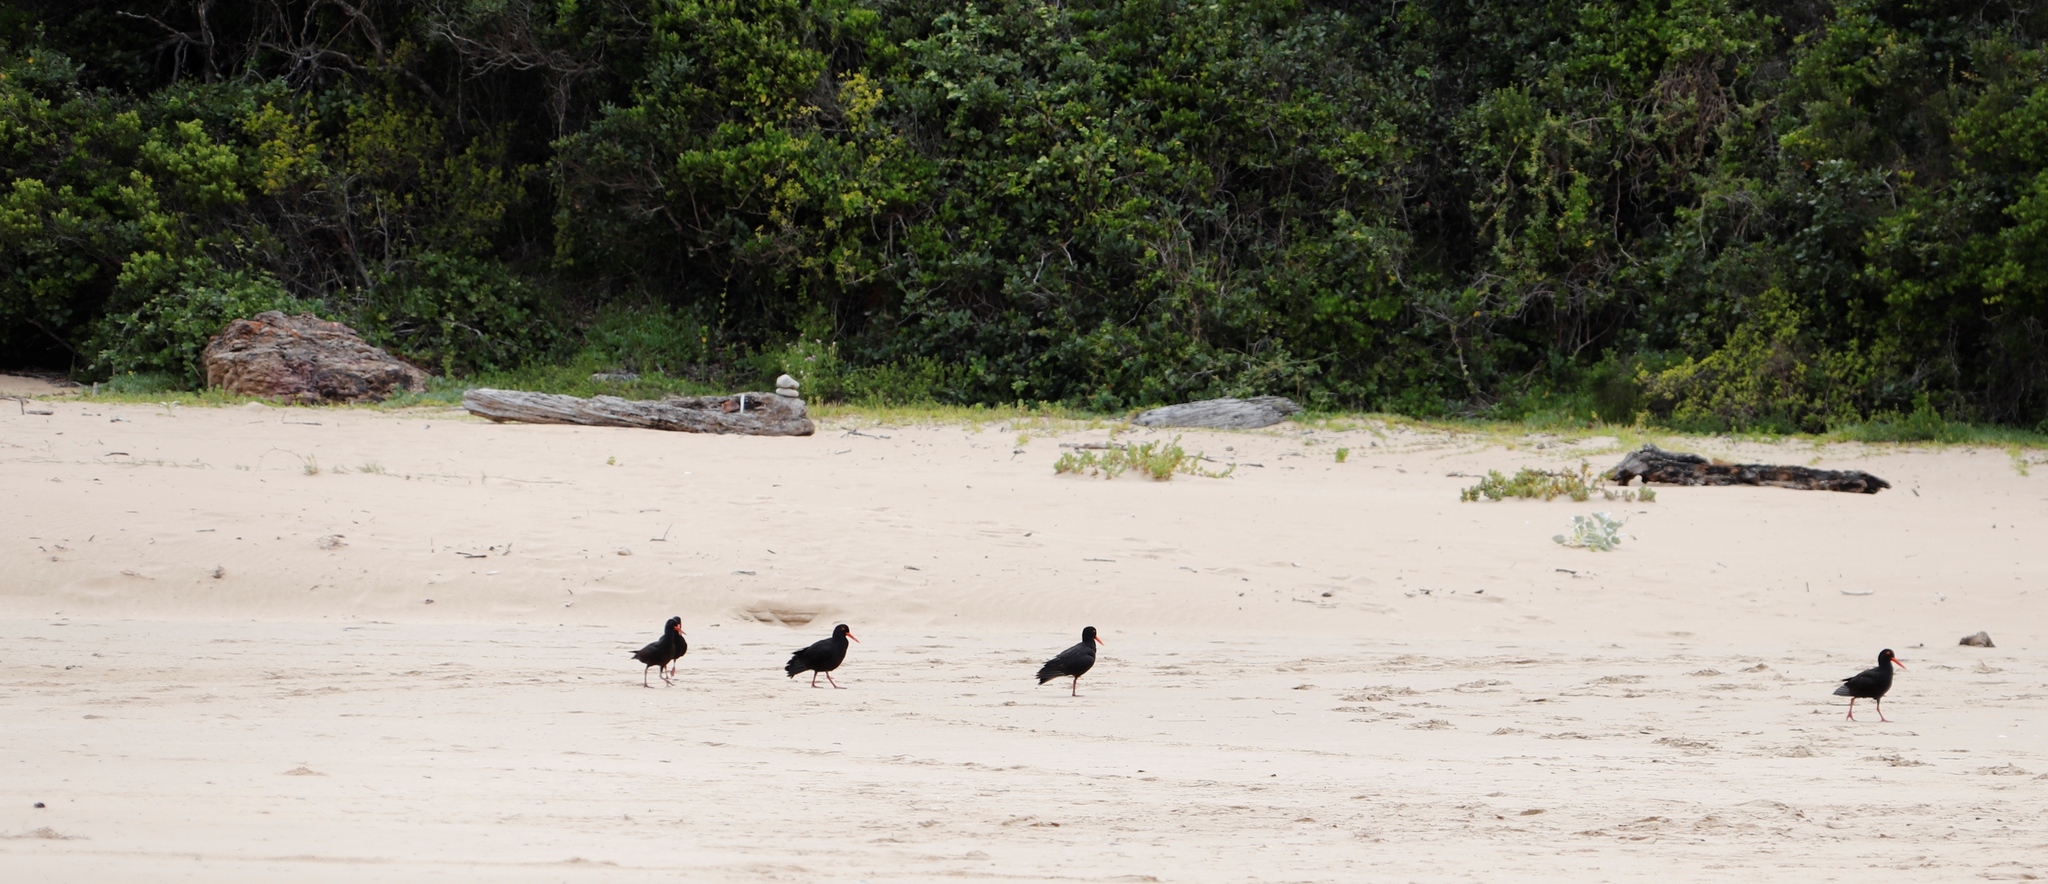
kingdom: Animalia
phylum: Chordata
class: Aves
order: Charadriiformes
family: Haematopodidae
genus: Haematopus
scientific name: Haematopus moquini
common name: African oystercatcher
